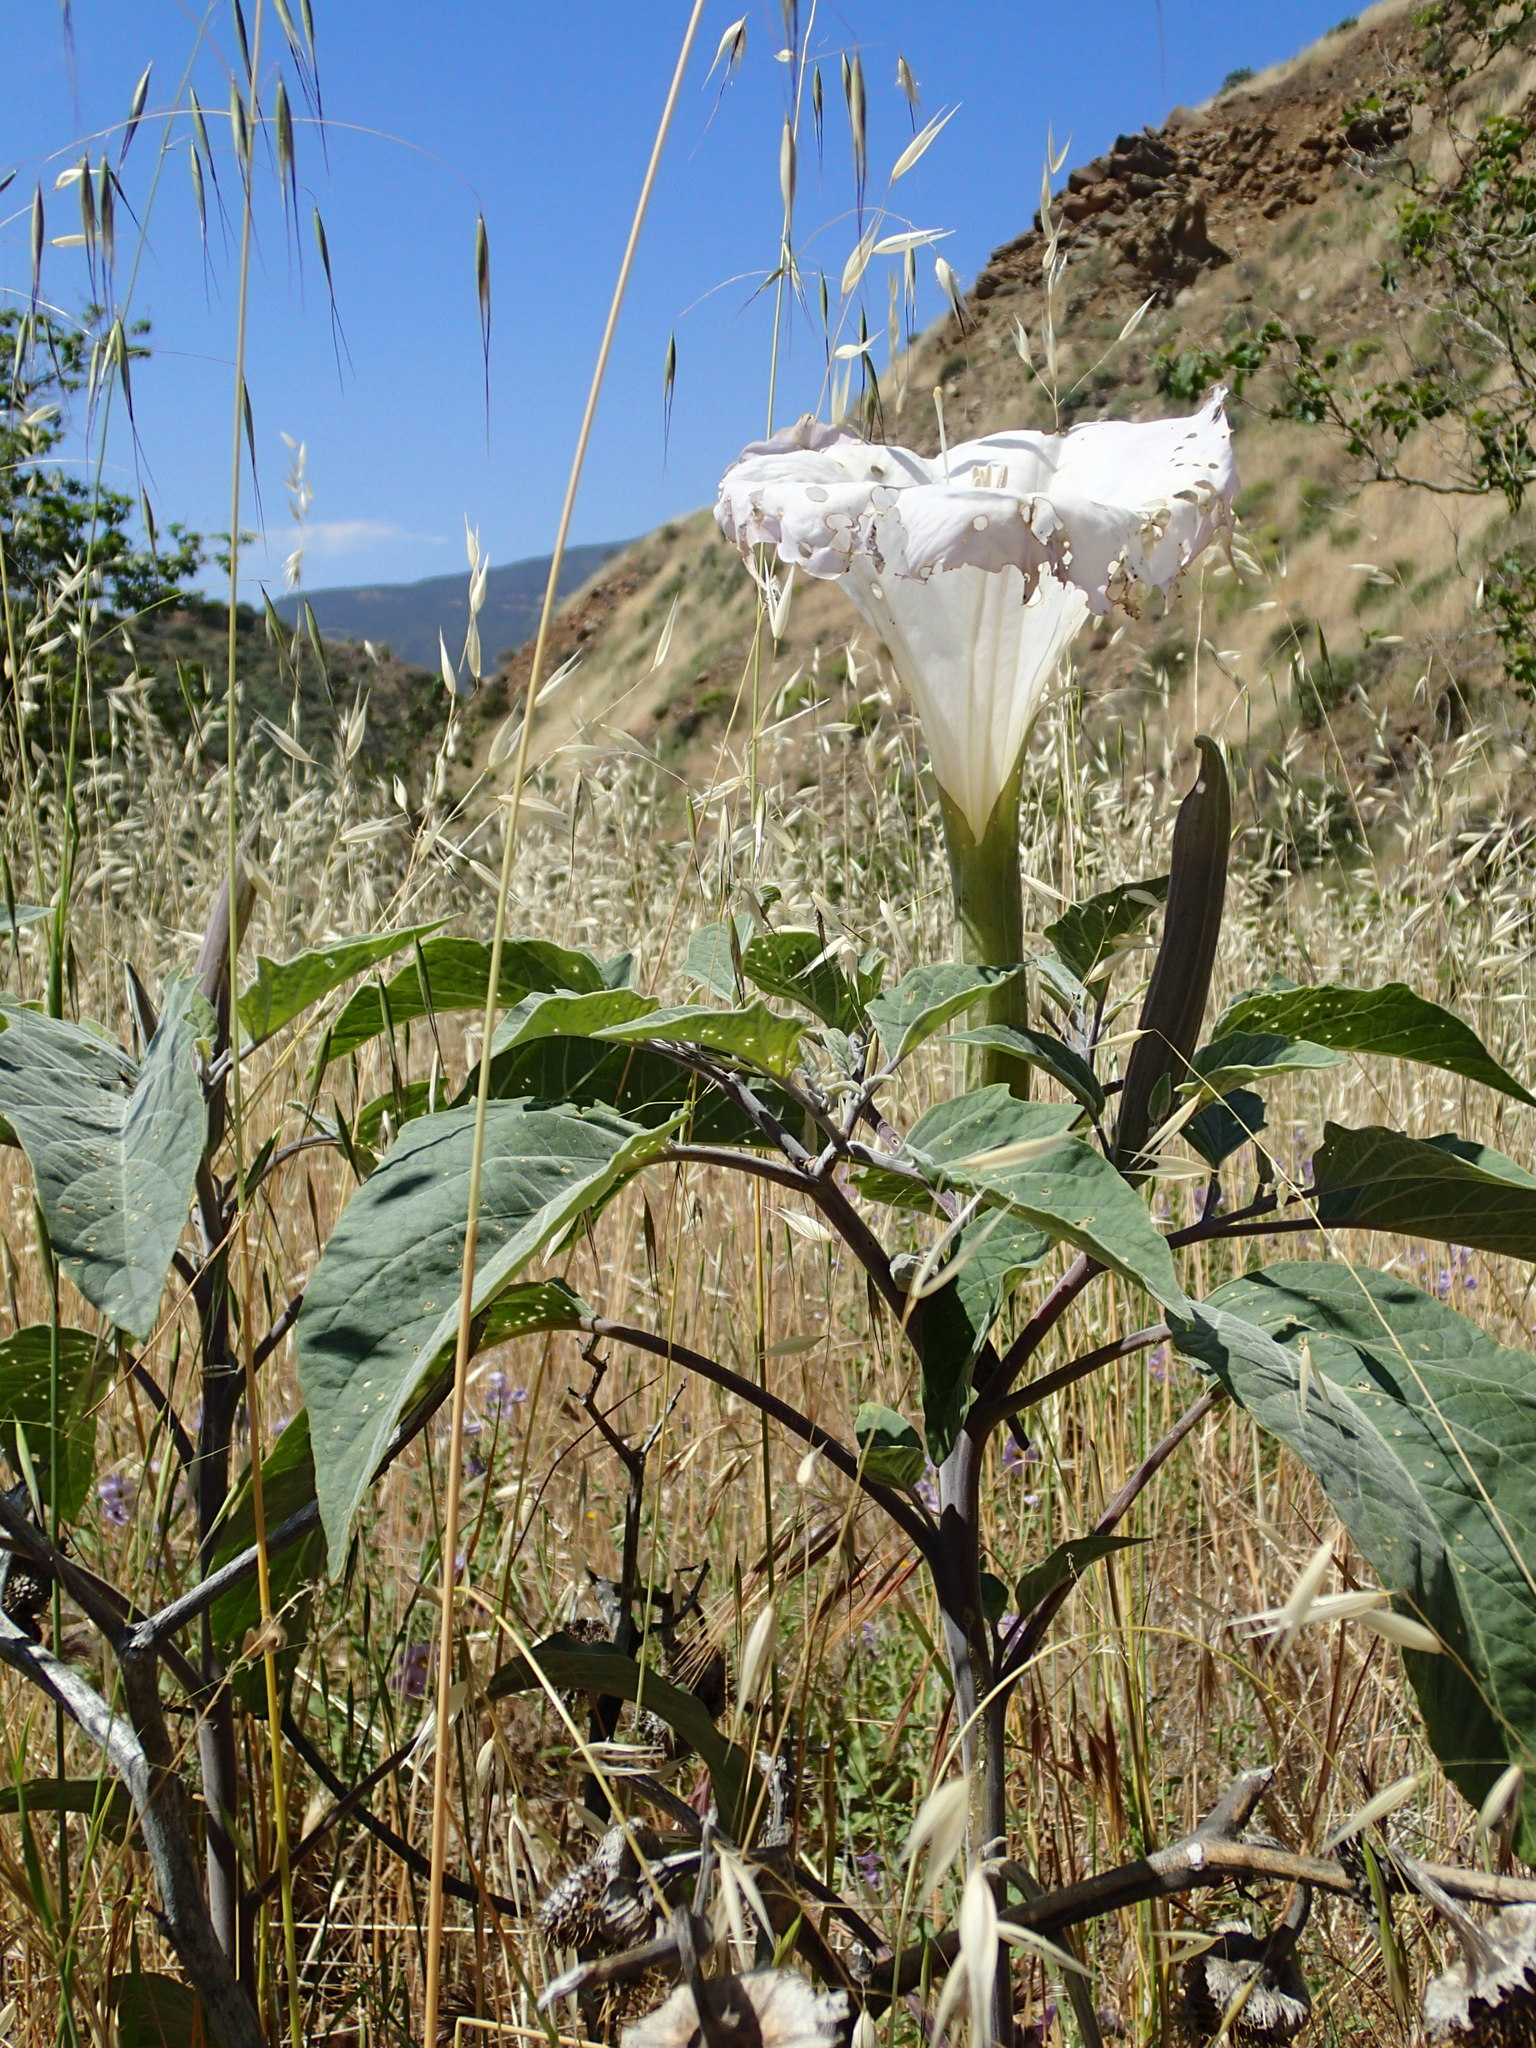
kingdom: Plantae
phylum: Tracheophyta
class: Magnoliopsida
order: Solanales
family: Solanaceae
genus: Datura
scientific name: Datura wrightii
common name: Sacred thorn-apple
